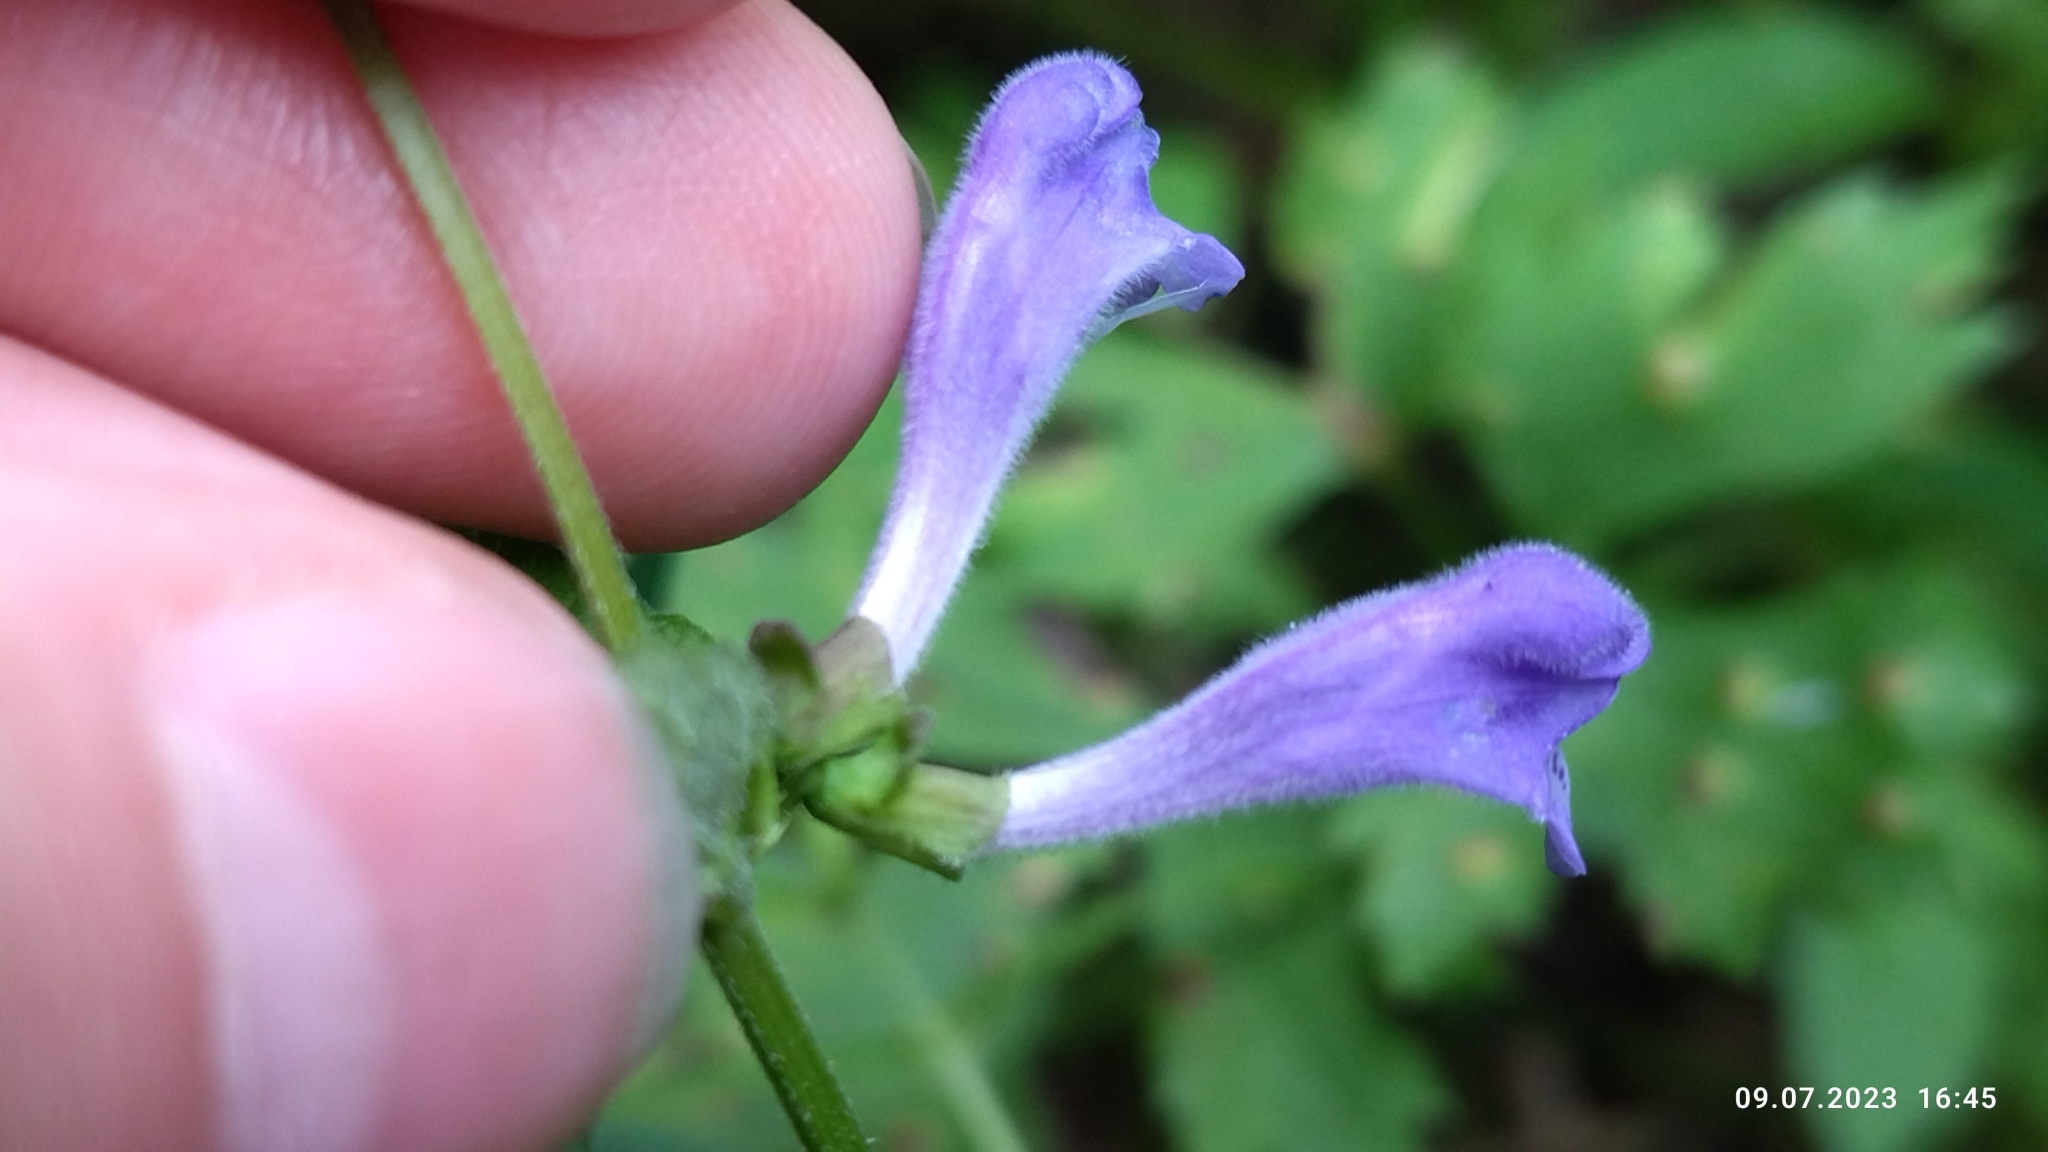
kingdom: Plantae
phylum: Tracheophyta
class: Magnoliopsida
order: Lamiales
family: Lamiaceae
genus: Scutellaria
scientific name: Scutellaria galericulata
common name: Skullcap
